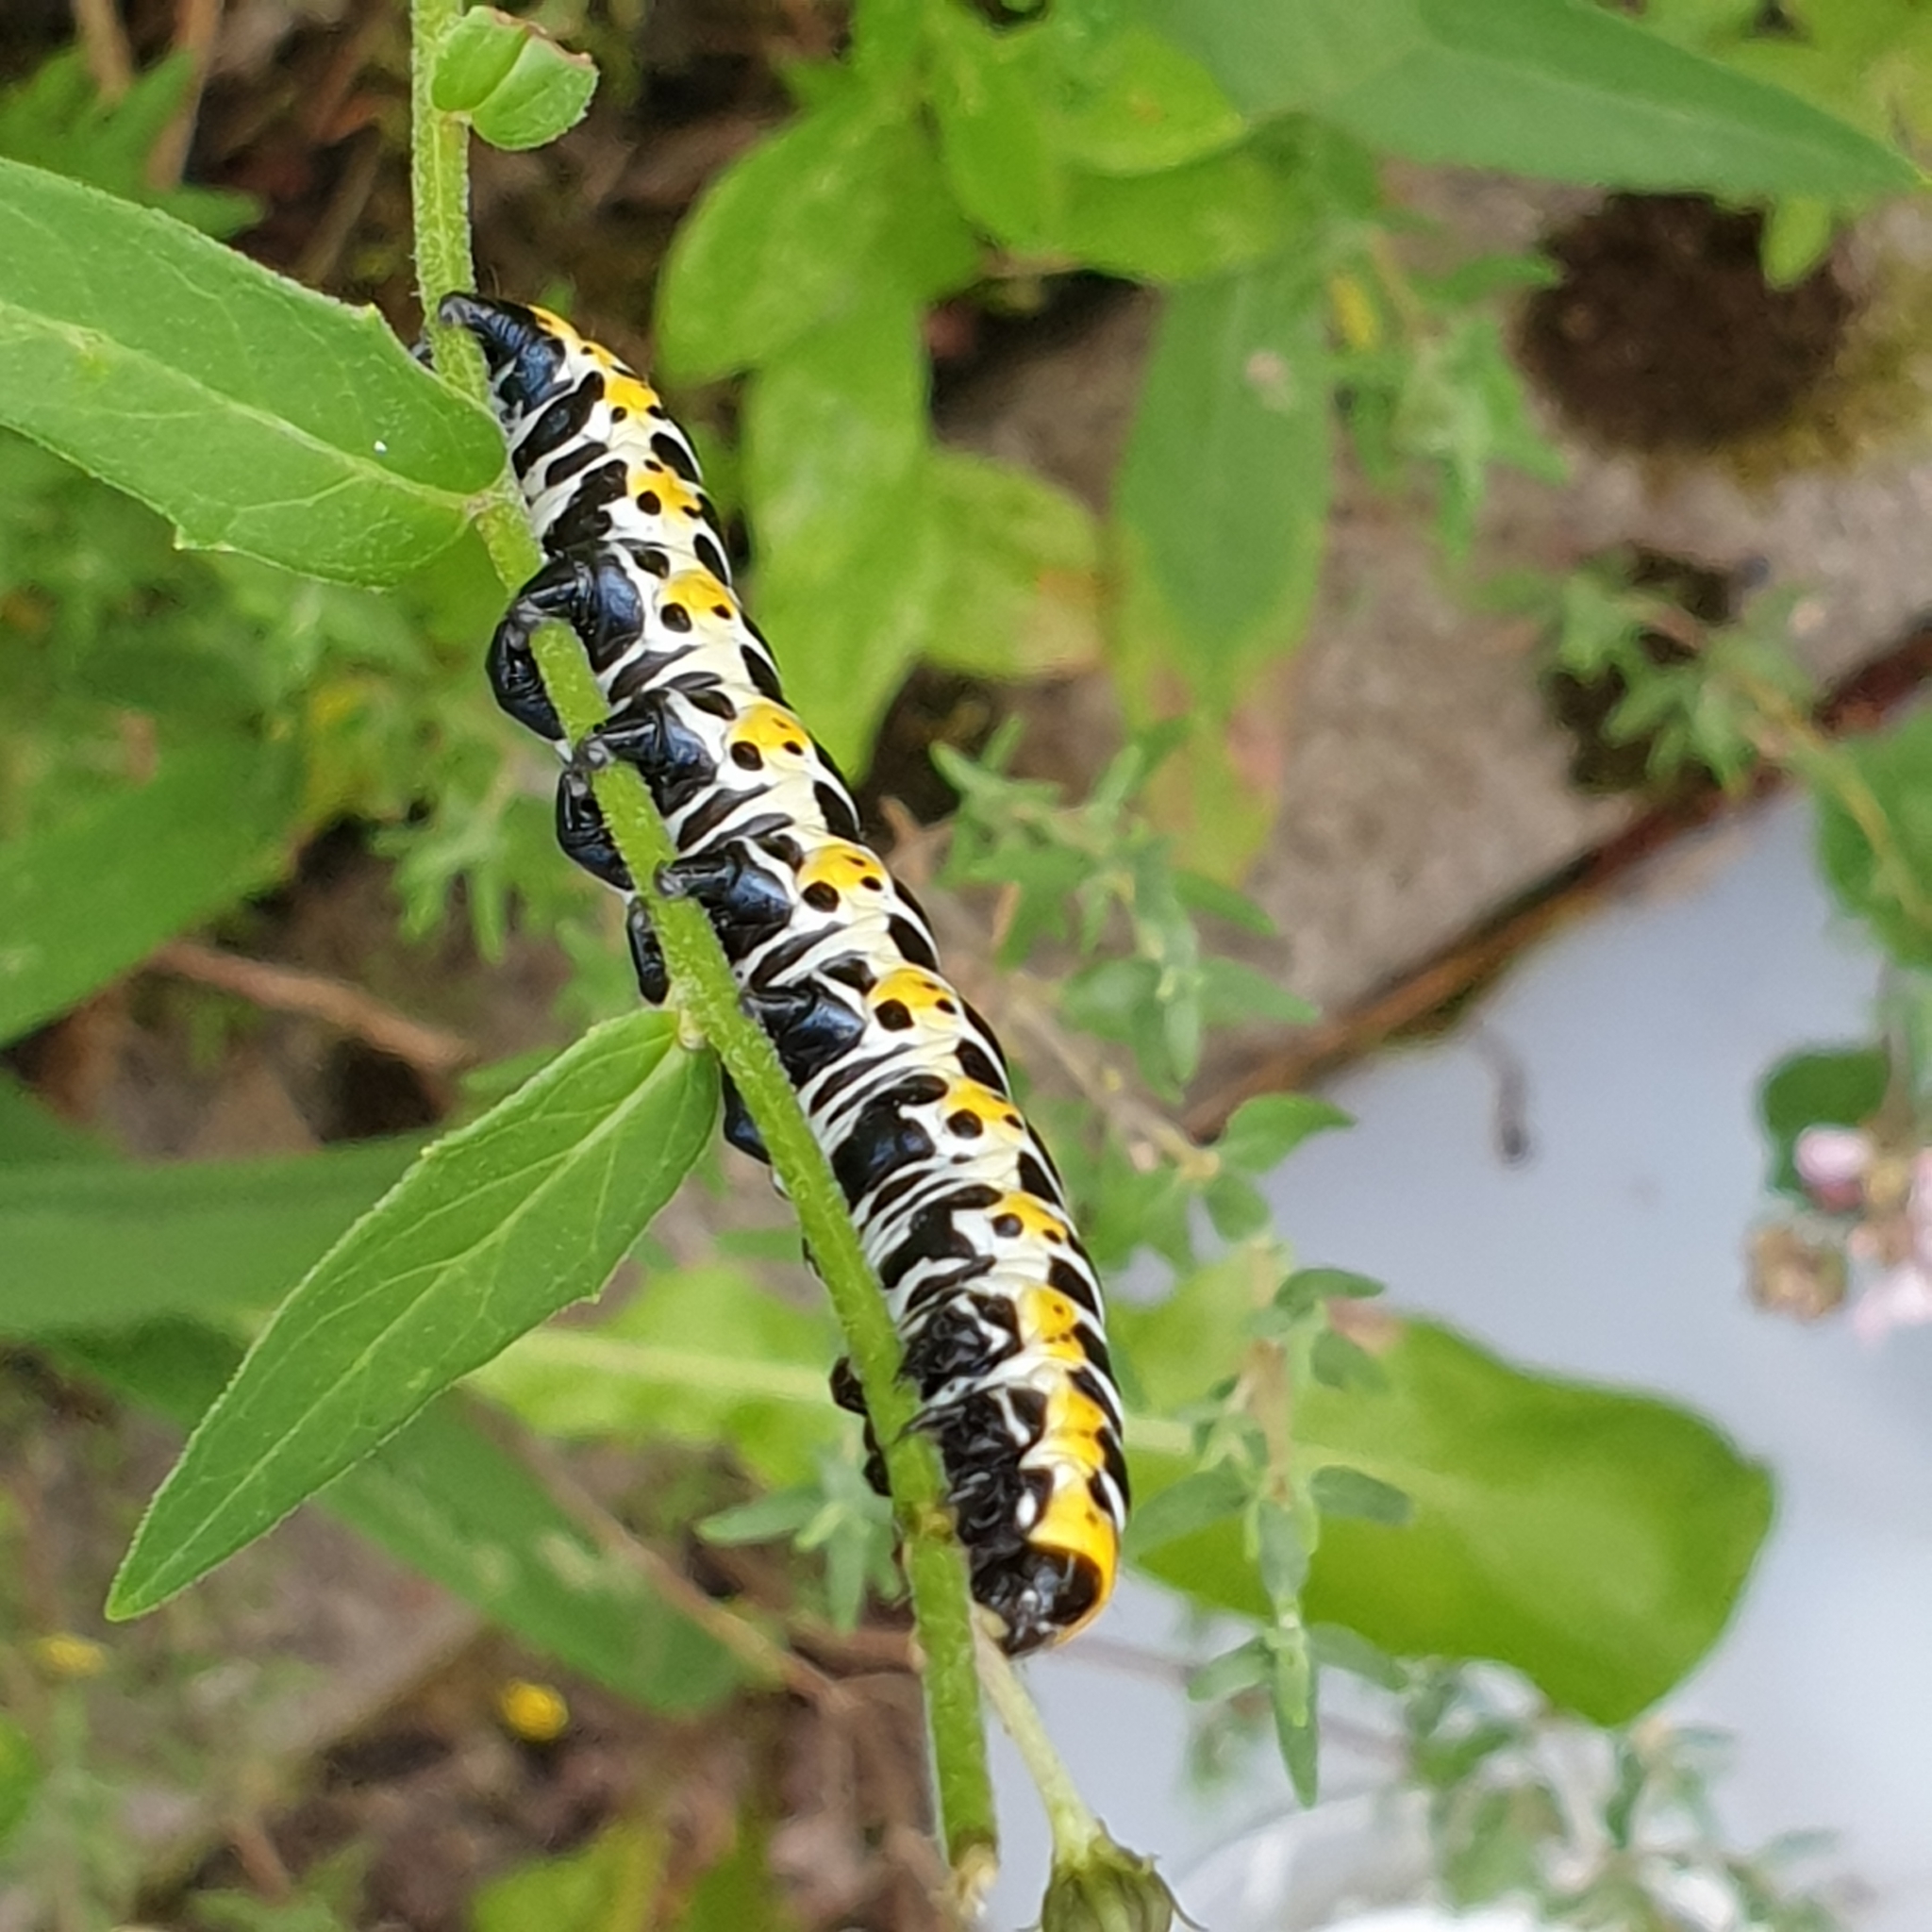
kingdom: Animalia
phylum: Arthropoda
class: Insecta
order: Lepidoptera
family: Noctuidae
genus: Cucullia
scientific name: Cucullia lactucae
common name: Lettuce shark
